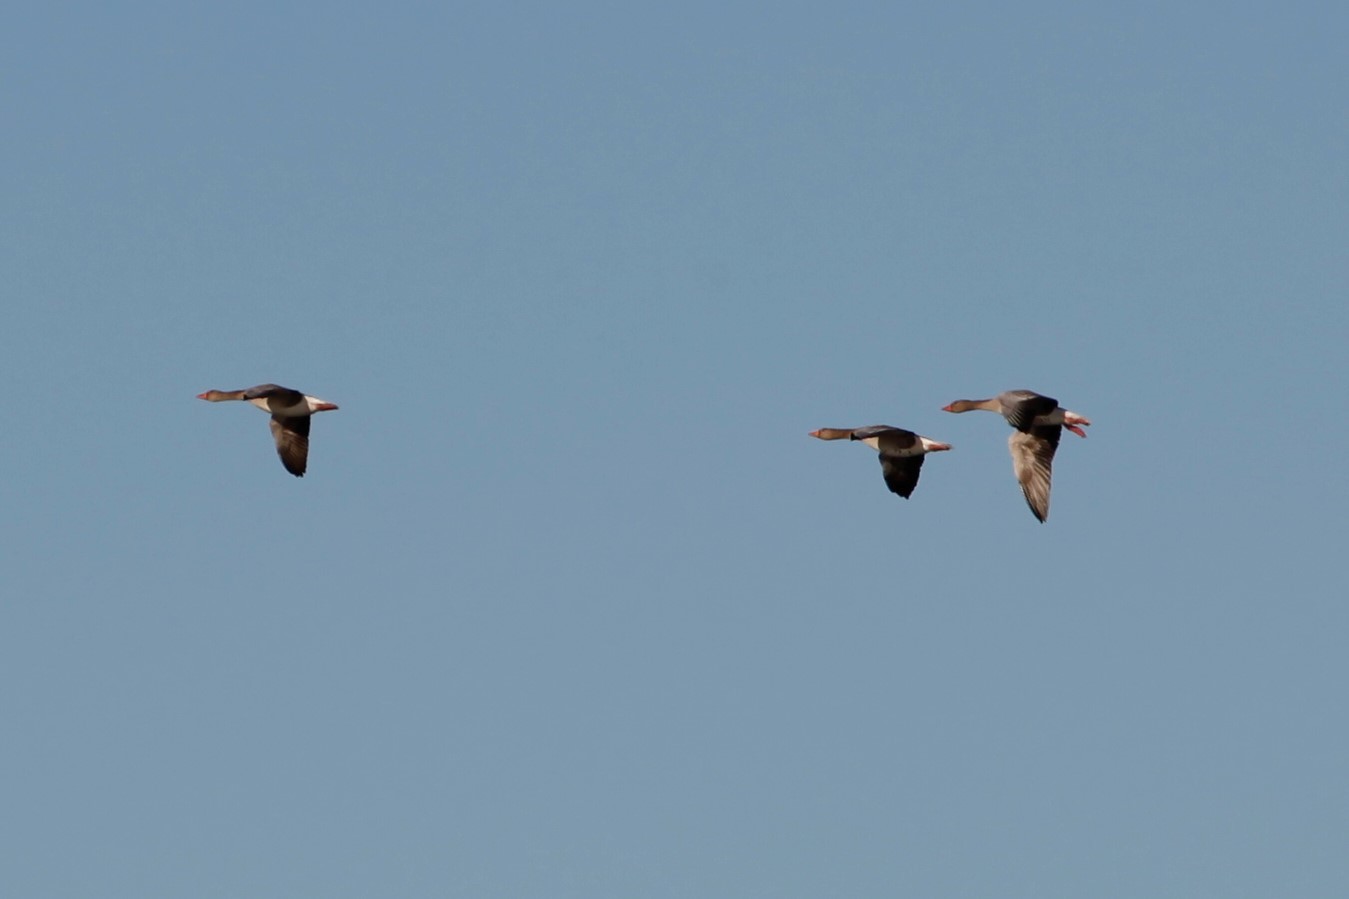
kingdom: Animalia
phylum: Chordata
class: Aves
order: Anseriformes
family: Anatidae
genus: Anser
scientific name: Anser anser
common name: Greylag goose
